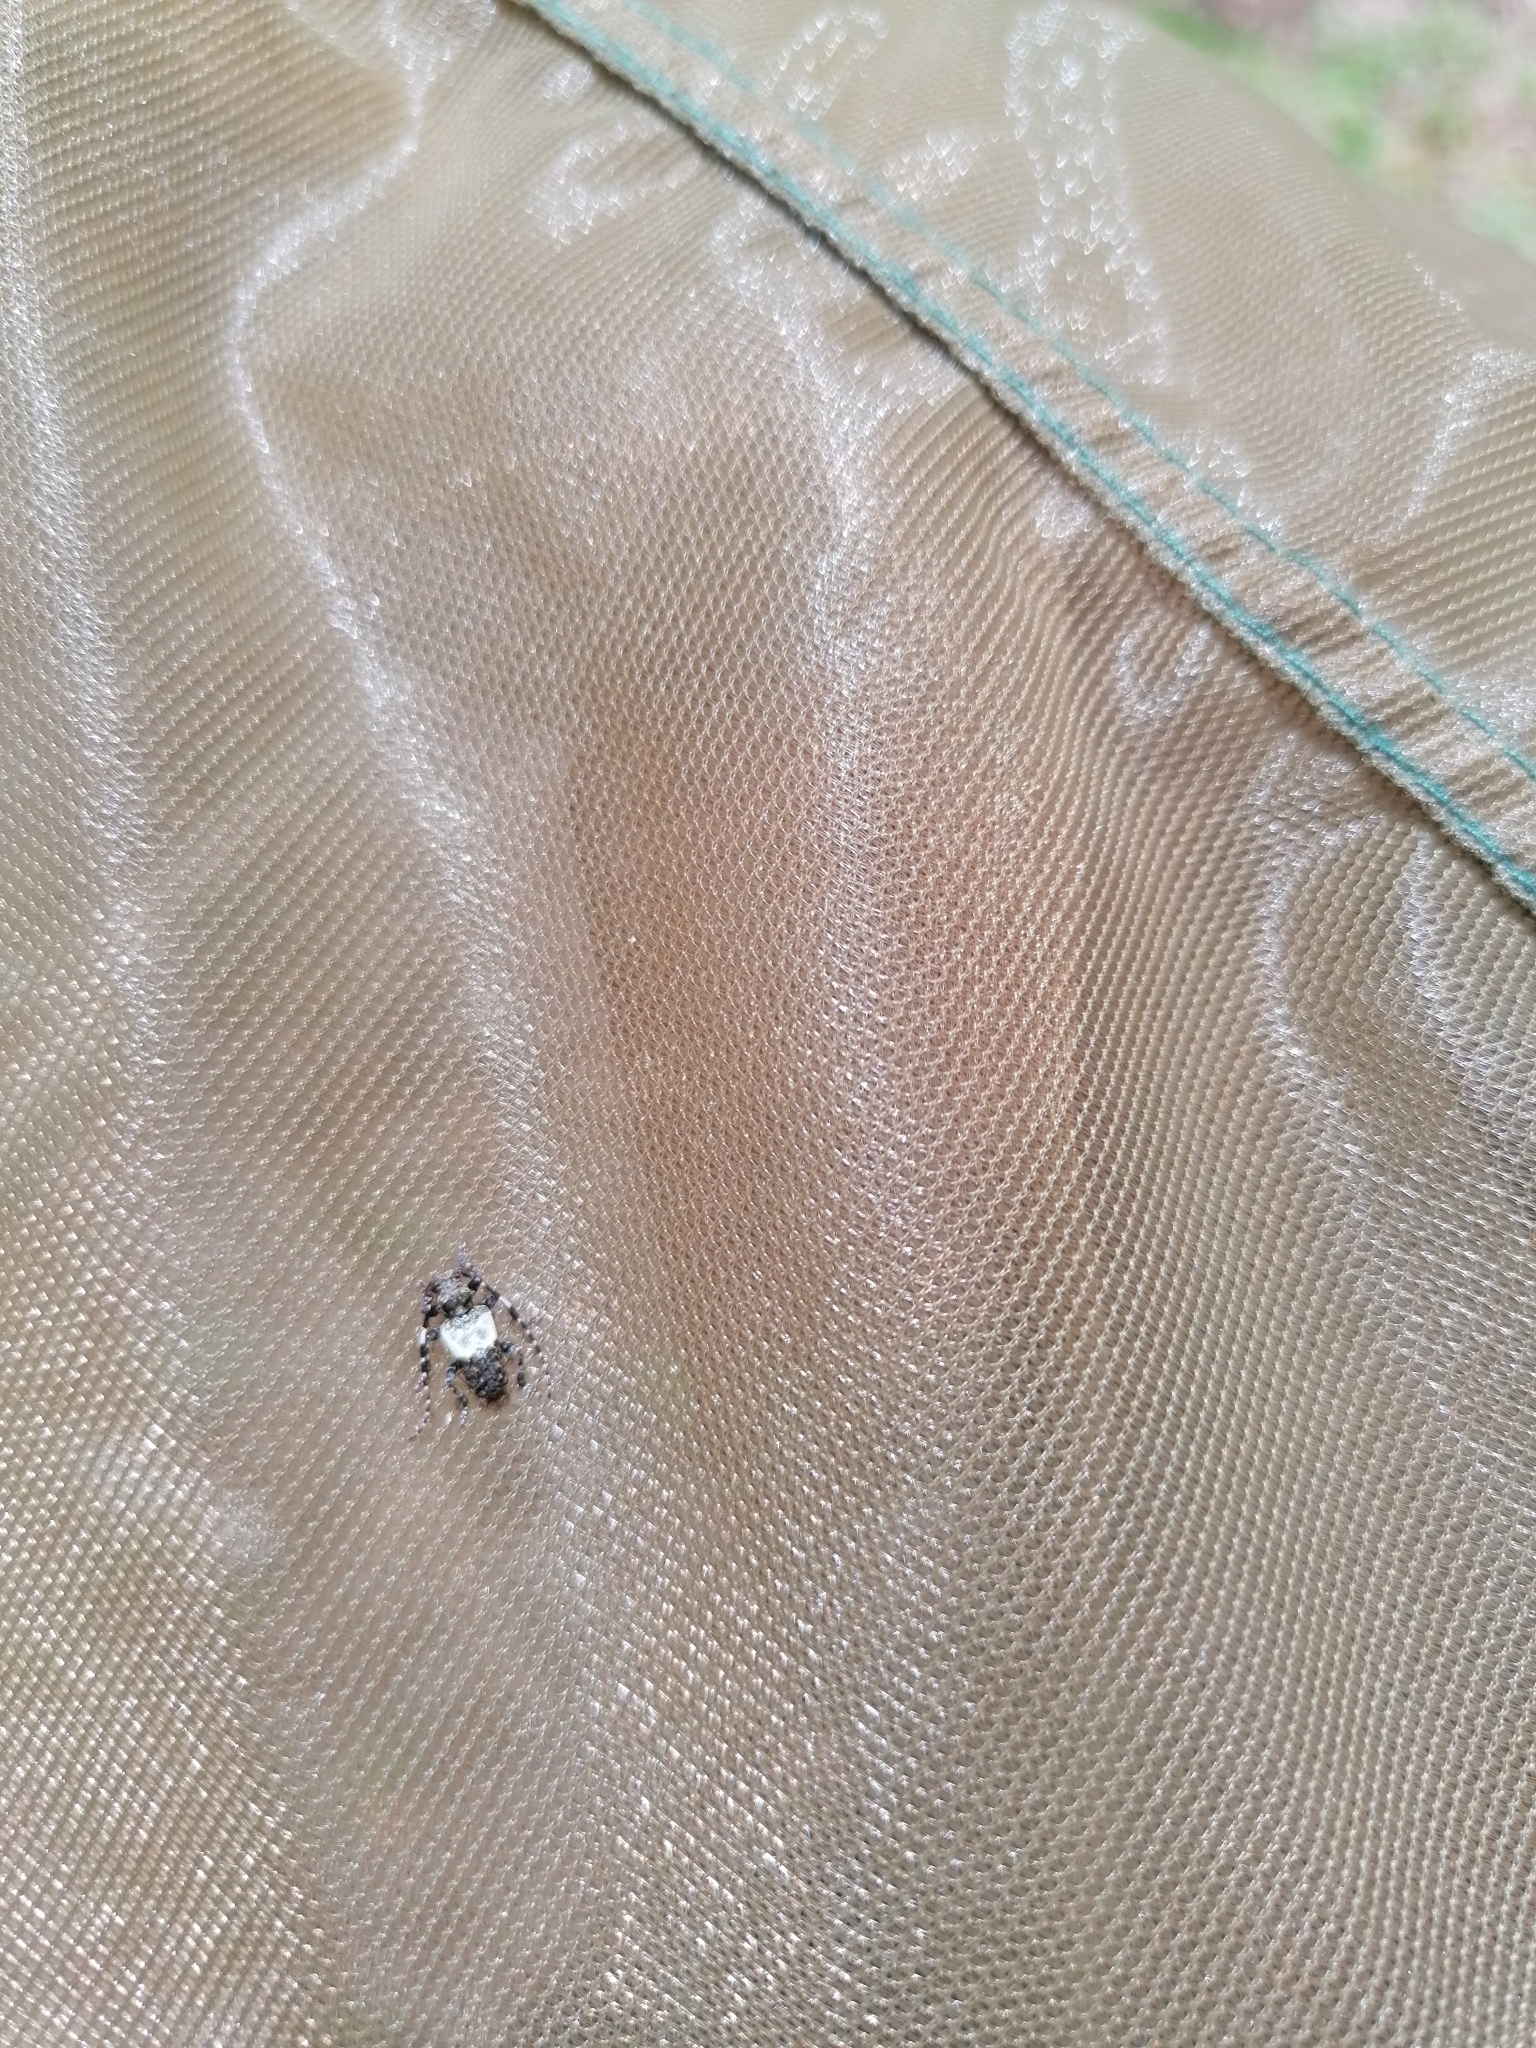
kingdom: Animalia
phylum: Arthropoda
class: Insecta
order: Coleoptera
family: Cerambycidae
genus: Pogonocherus
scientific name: Pogonocherus hispidulus
